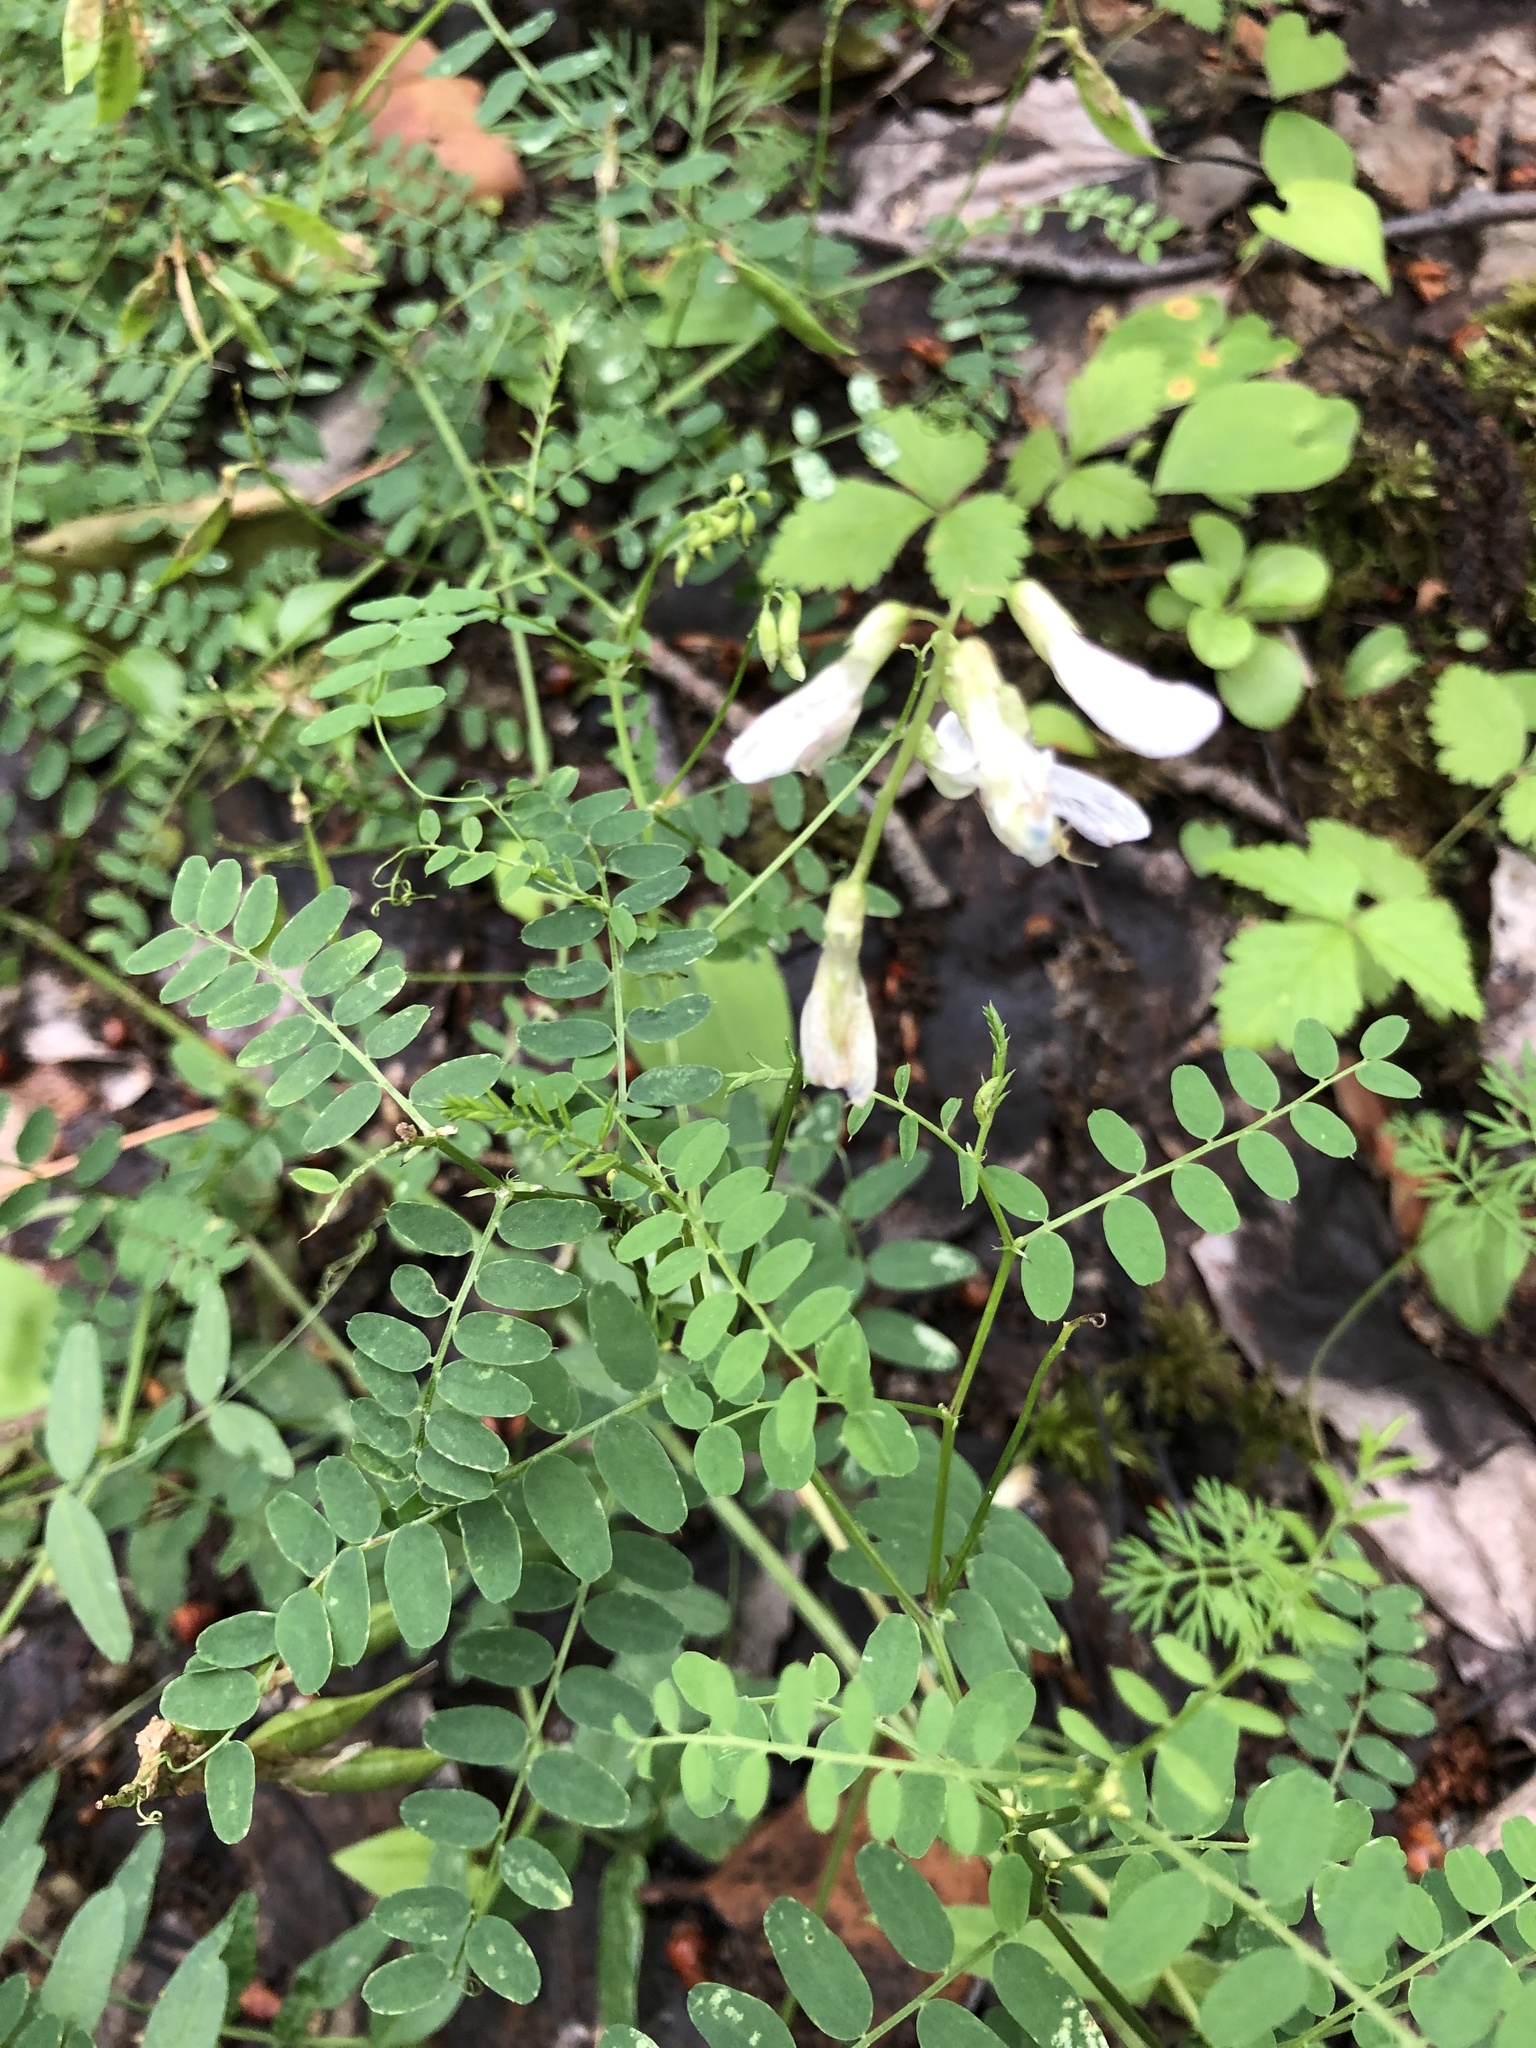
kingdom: Plantae
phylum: Tracheophyta
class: Magnoliopsida
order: Fabales
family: Fabaceae
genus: Vicia
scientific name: Vicia sylvatica
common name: Wood vetch
